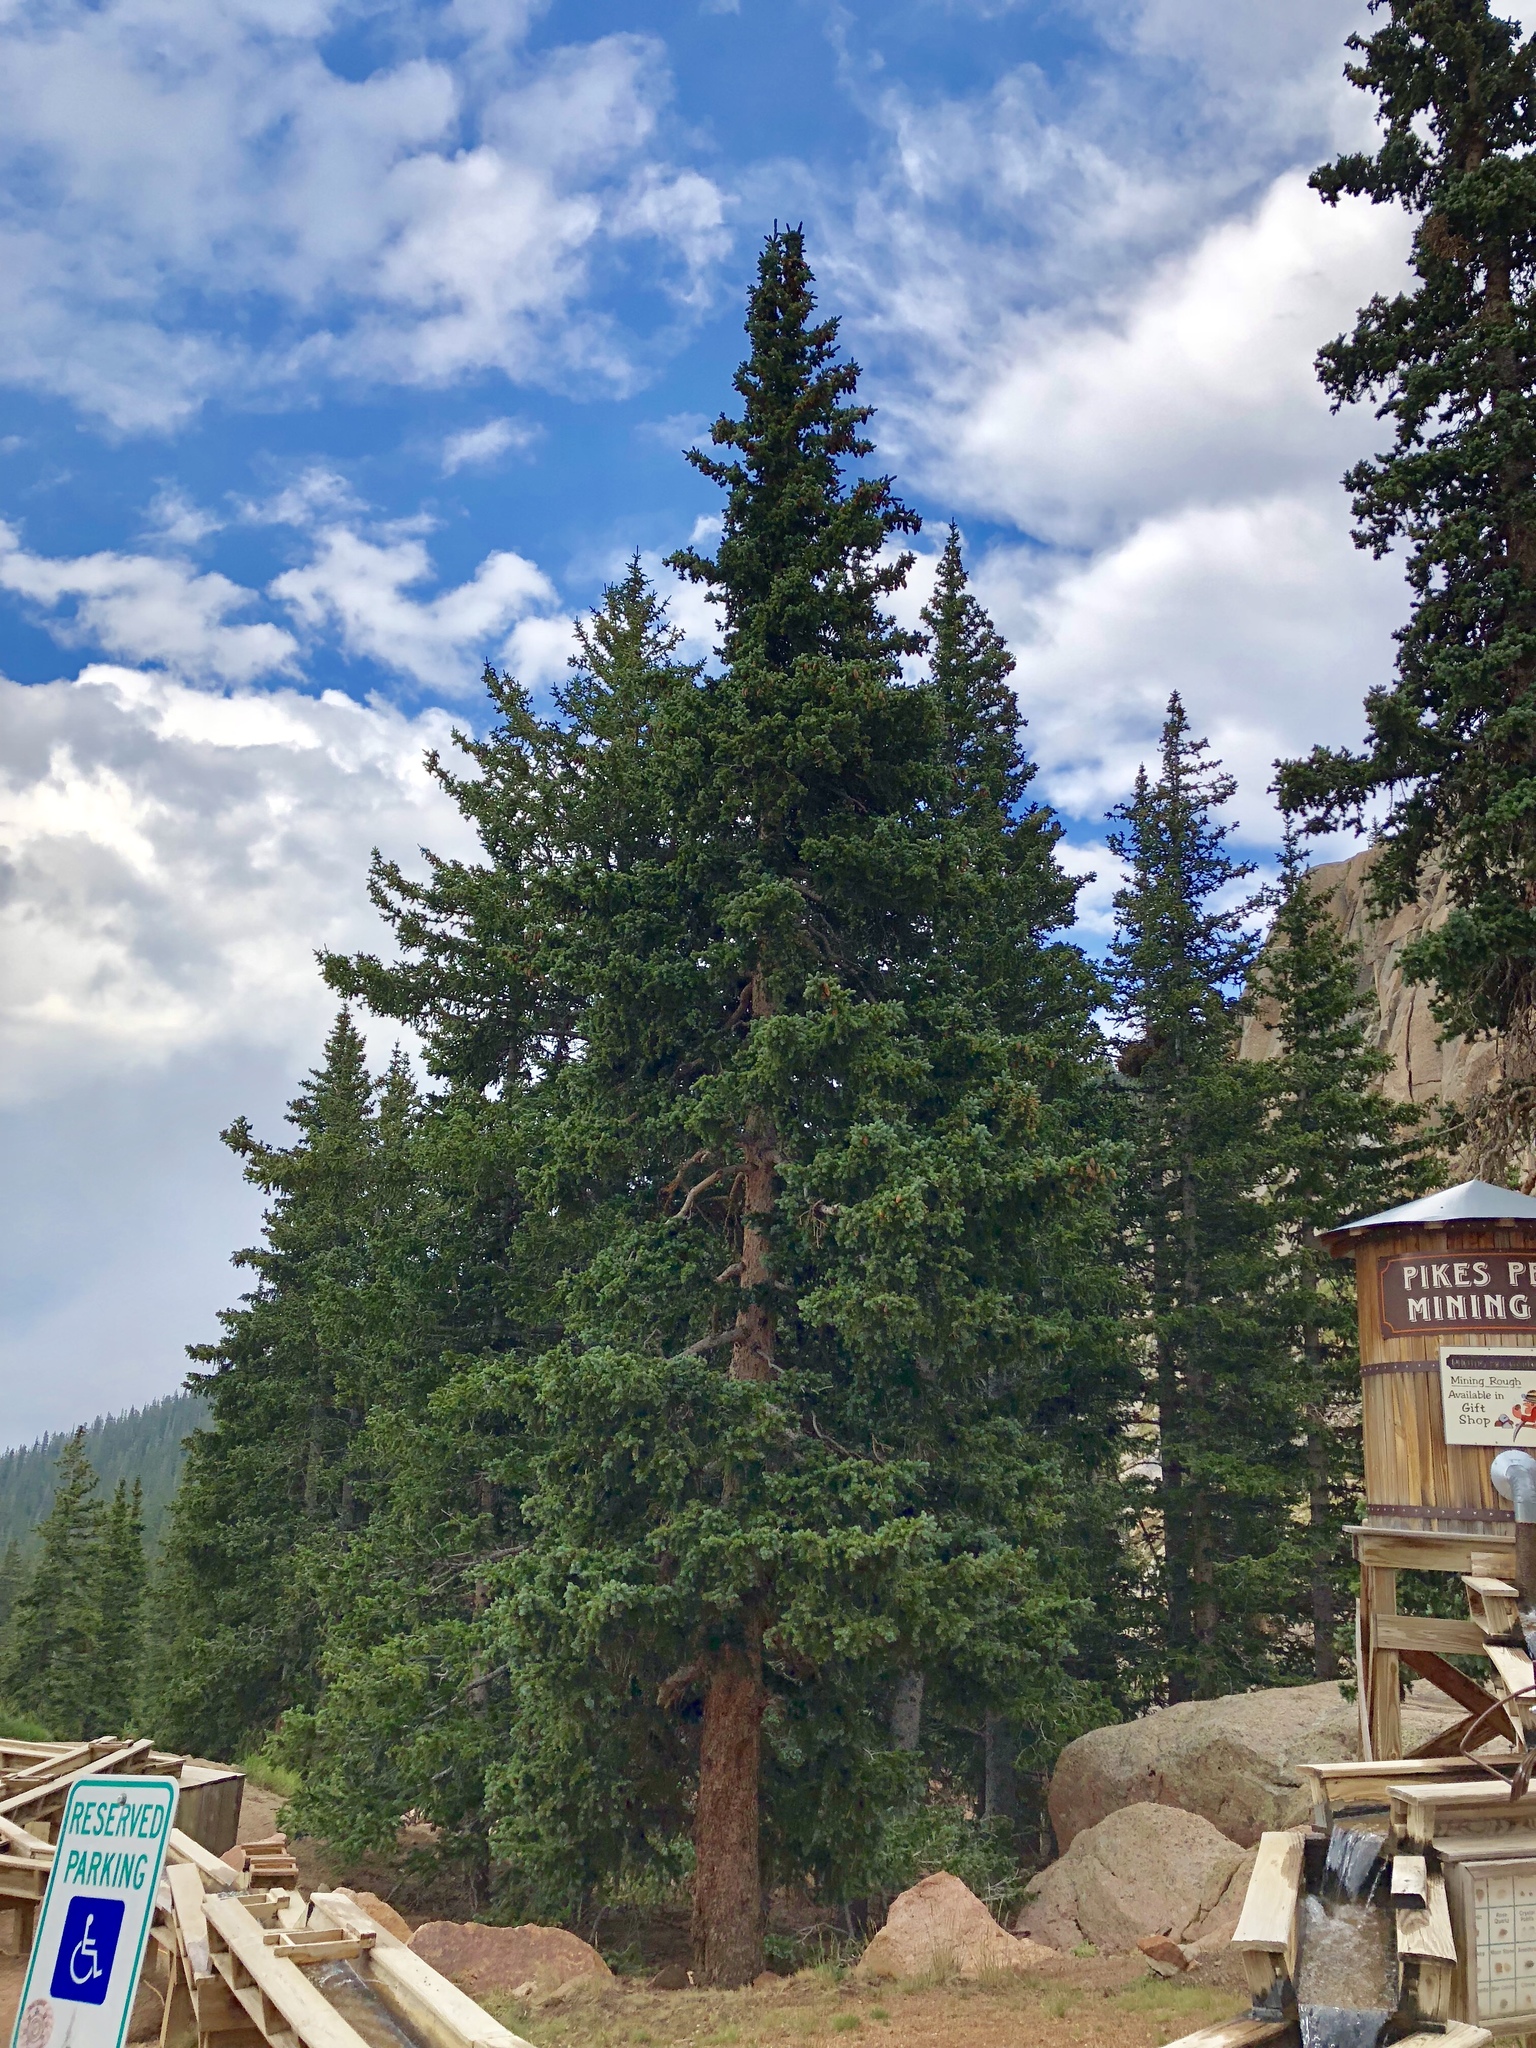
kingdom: Plantae
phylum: Tracheophyta
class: Pinopsida
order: Pinales
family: Pinaceae
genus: Picea
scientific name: Picea engelmannii
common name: Engelmann spruce
